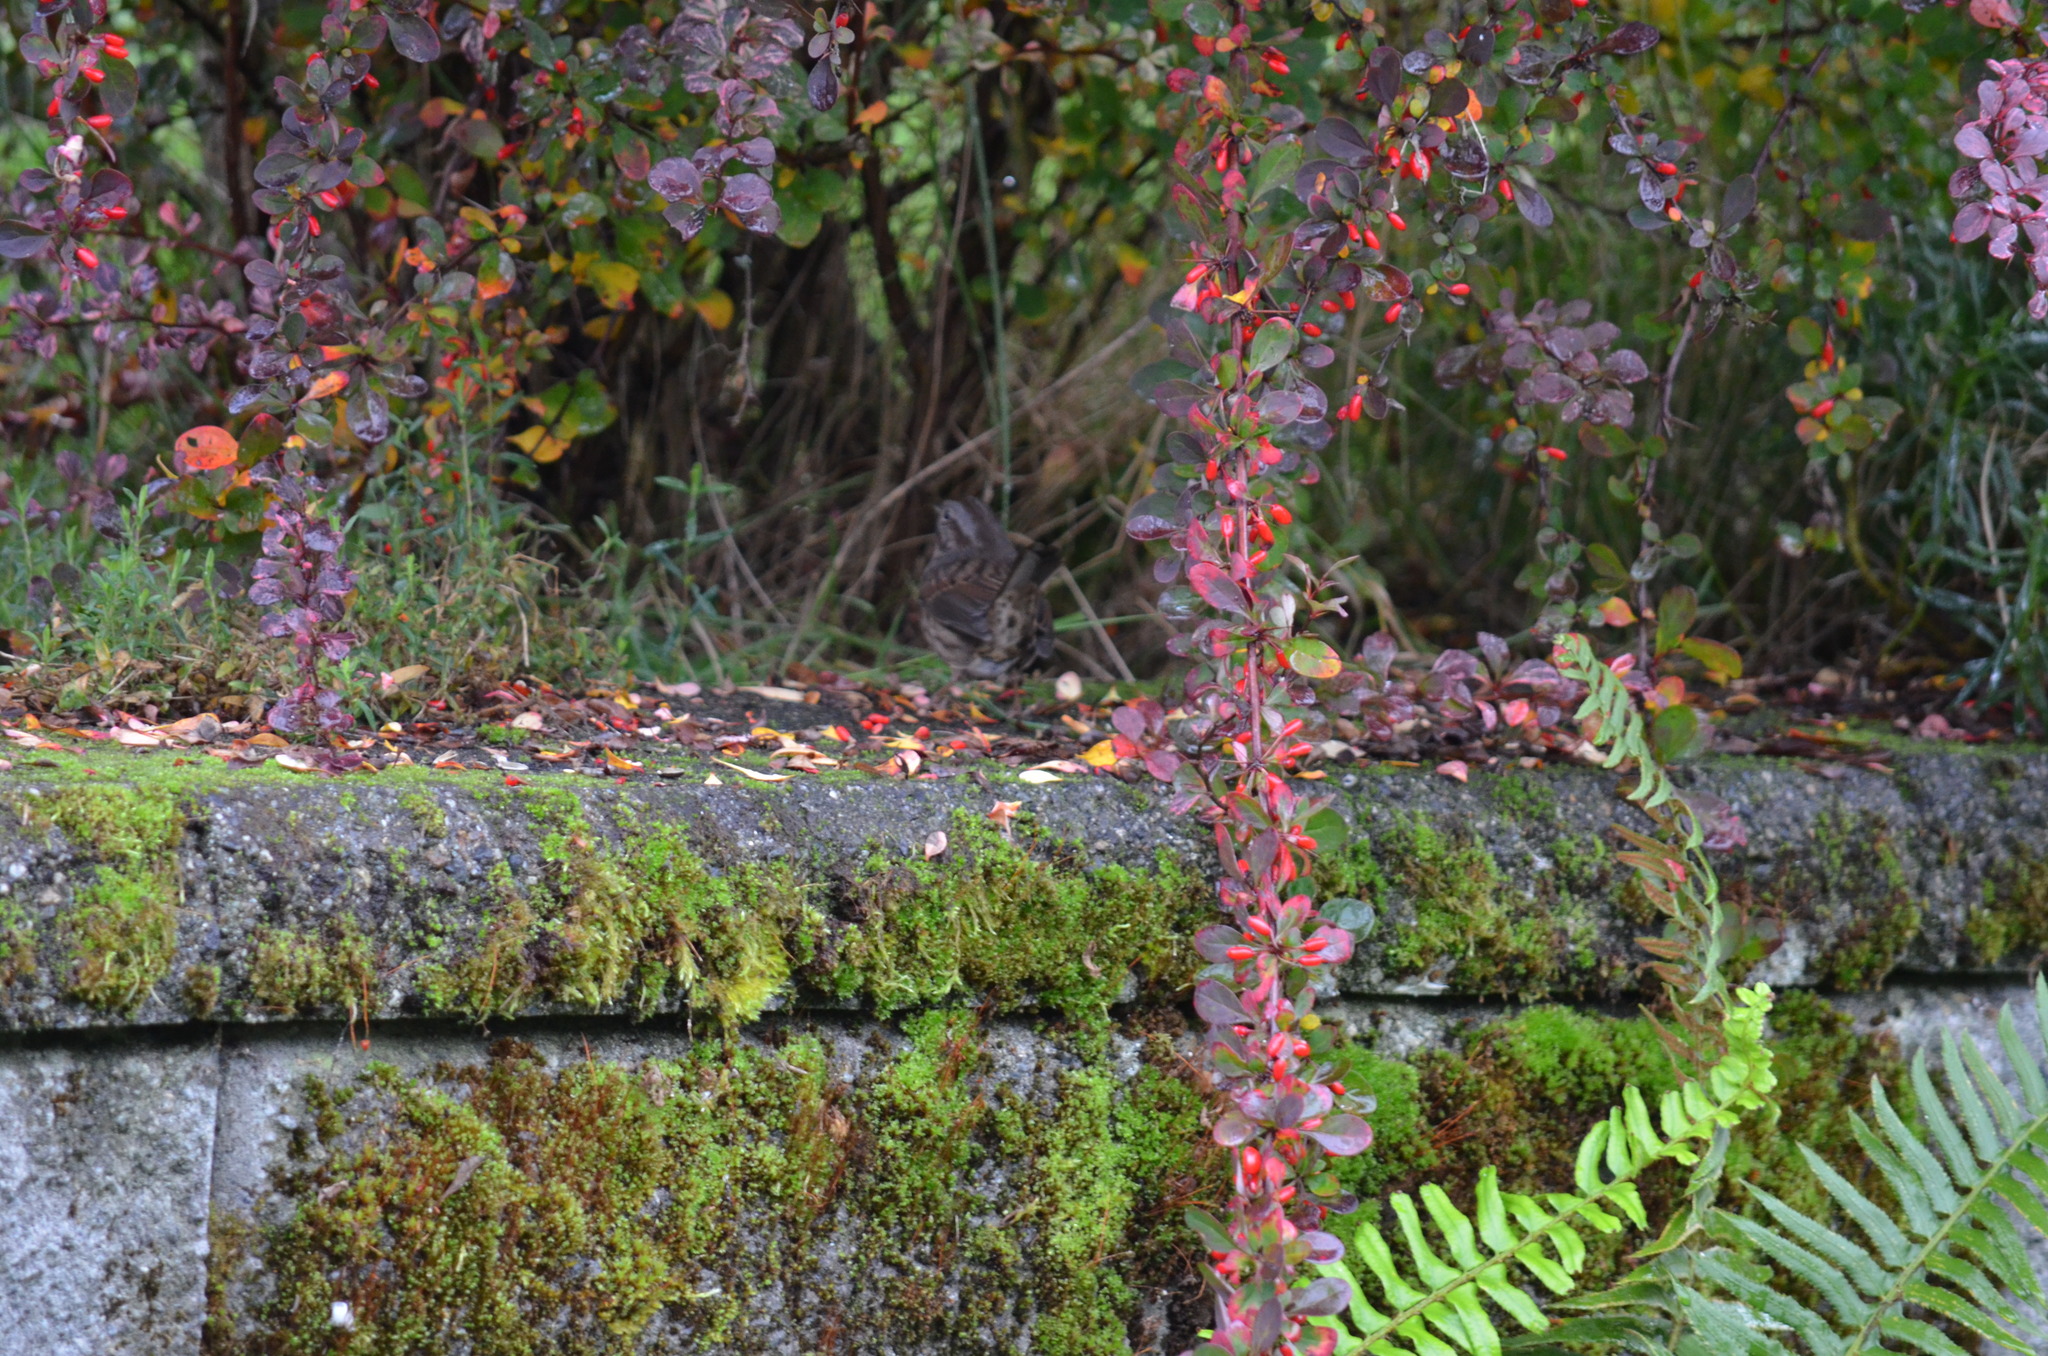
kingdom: Animalia
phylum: Chordata
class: Aves
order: Passeriformes
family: Passerellidae
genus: Melospiza
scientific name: Melospiza melodia
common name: Song sparrow
